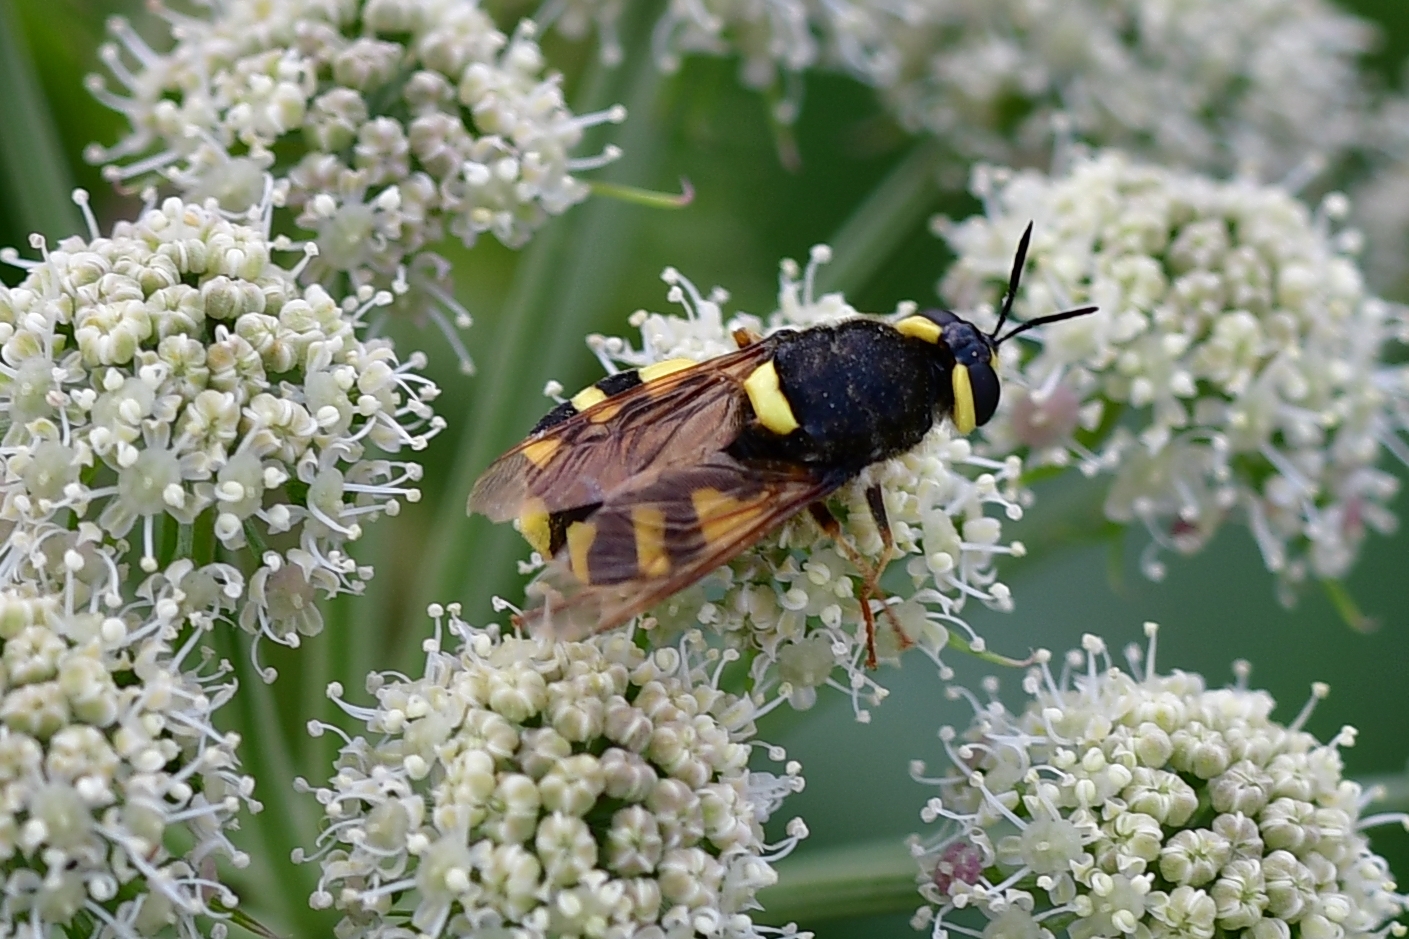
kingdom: Animalia
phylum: Arthropoda
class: Insecta
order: Diptera
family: Stratiomyidae
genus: Stratiomys
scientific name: Stratiomys chamaeleon
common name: Clubbed general
